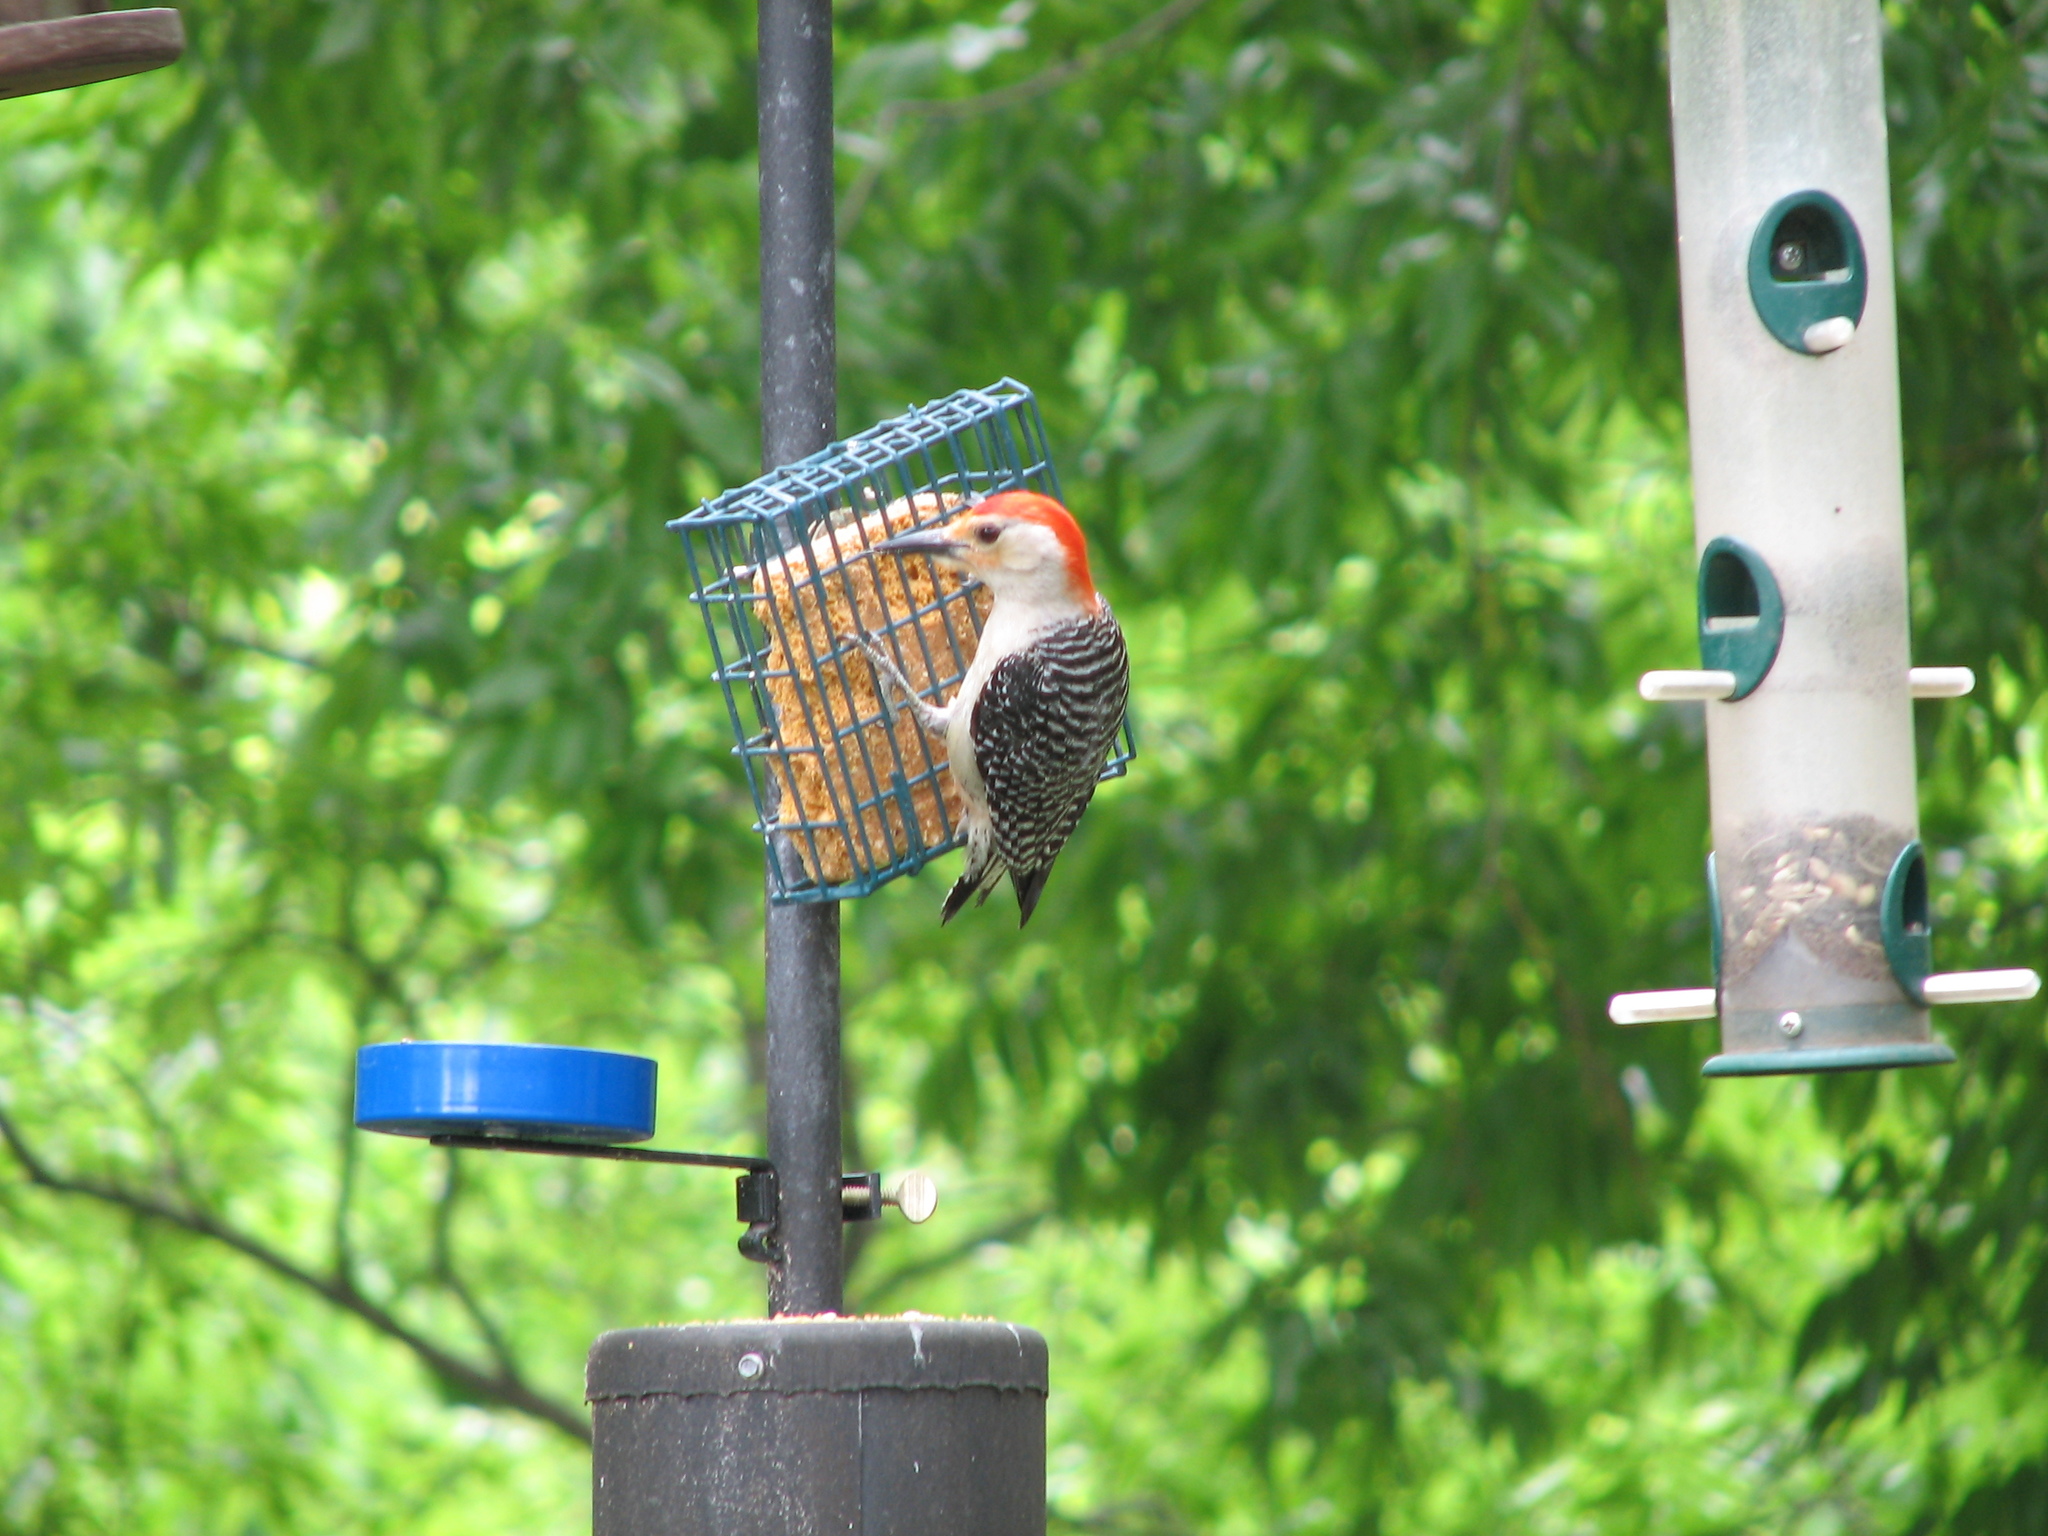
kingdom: Animalia
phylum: Chordata
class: Aves
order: Piciformes
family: Picidae
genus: Melanerpes
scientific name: Melanerpes carolinus
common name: Red-bellied woodpecker
